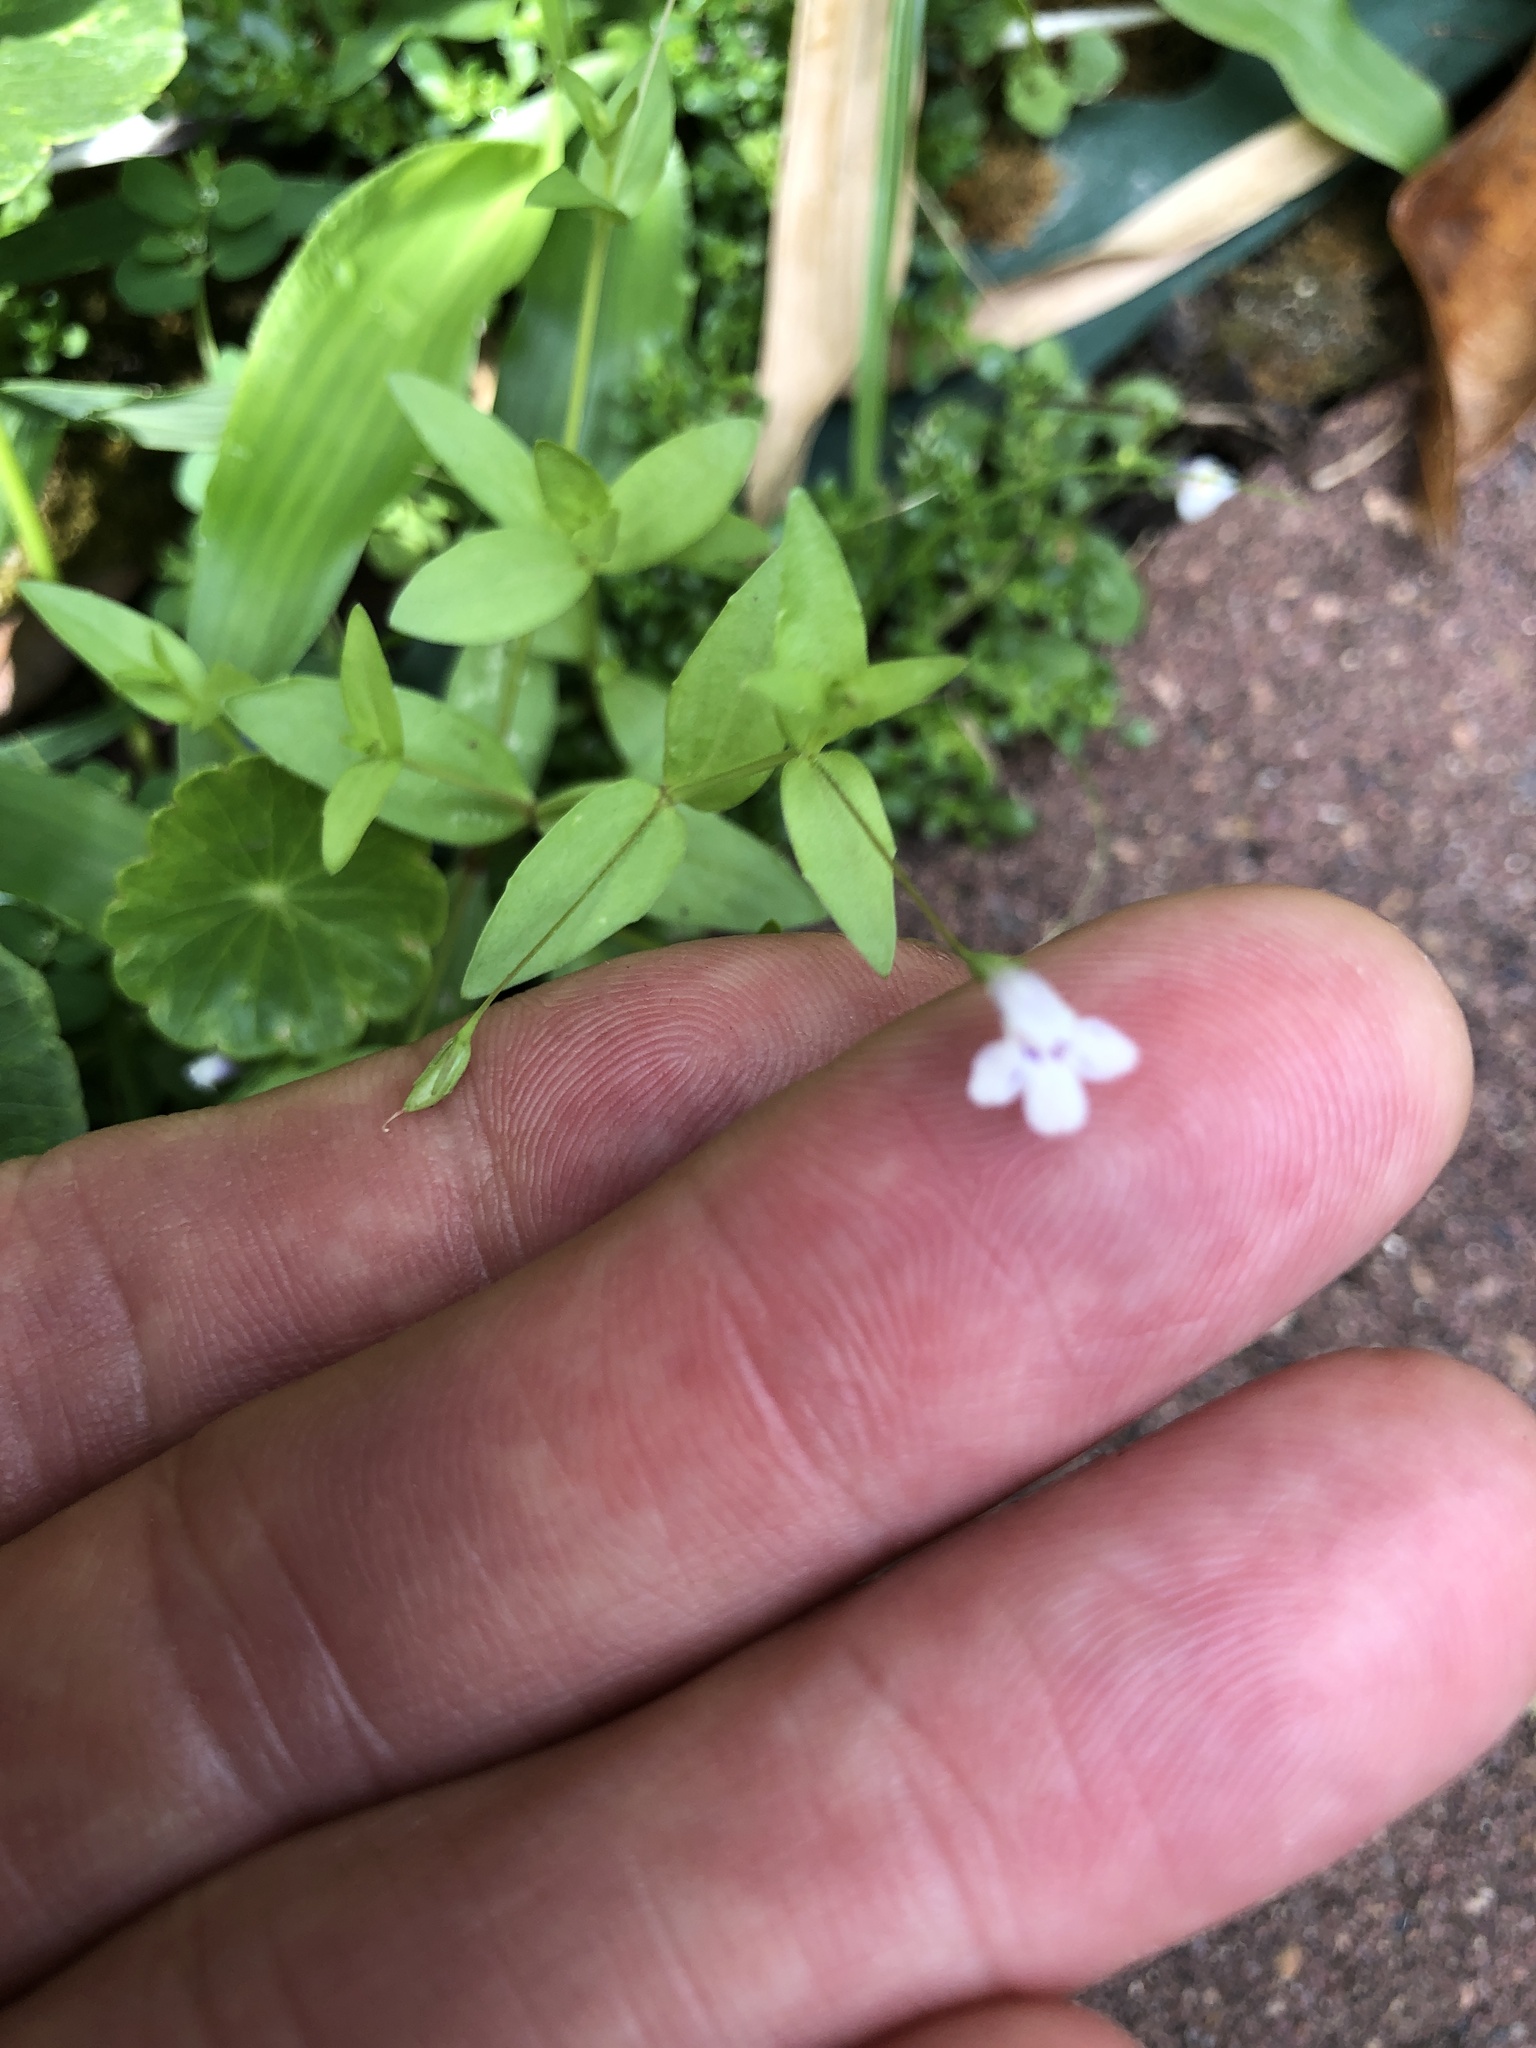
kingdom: Plantae
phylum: Tracheophyta
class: Magnoliopsida
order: Lamiales
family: Linderniaceae
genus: Lindernia
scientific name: Lindernia dubia
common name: Annual false pimpernel
